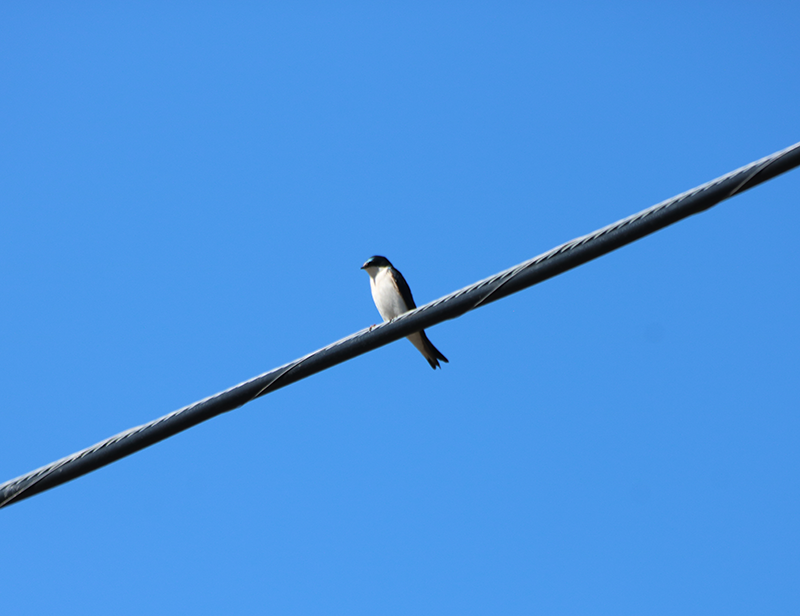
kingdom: Animalia
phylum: Chordata
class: Aves
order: Passeriformes
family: Hirundinidae
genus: Tachycineta
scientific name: Tachycineta bicolor
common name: Tree swallow
